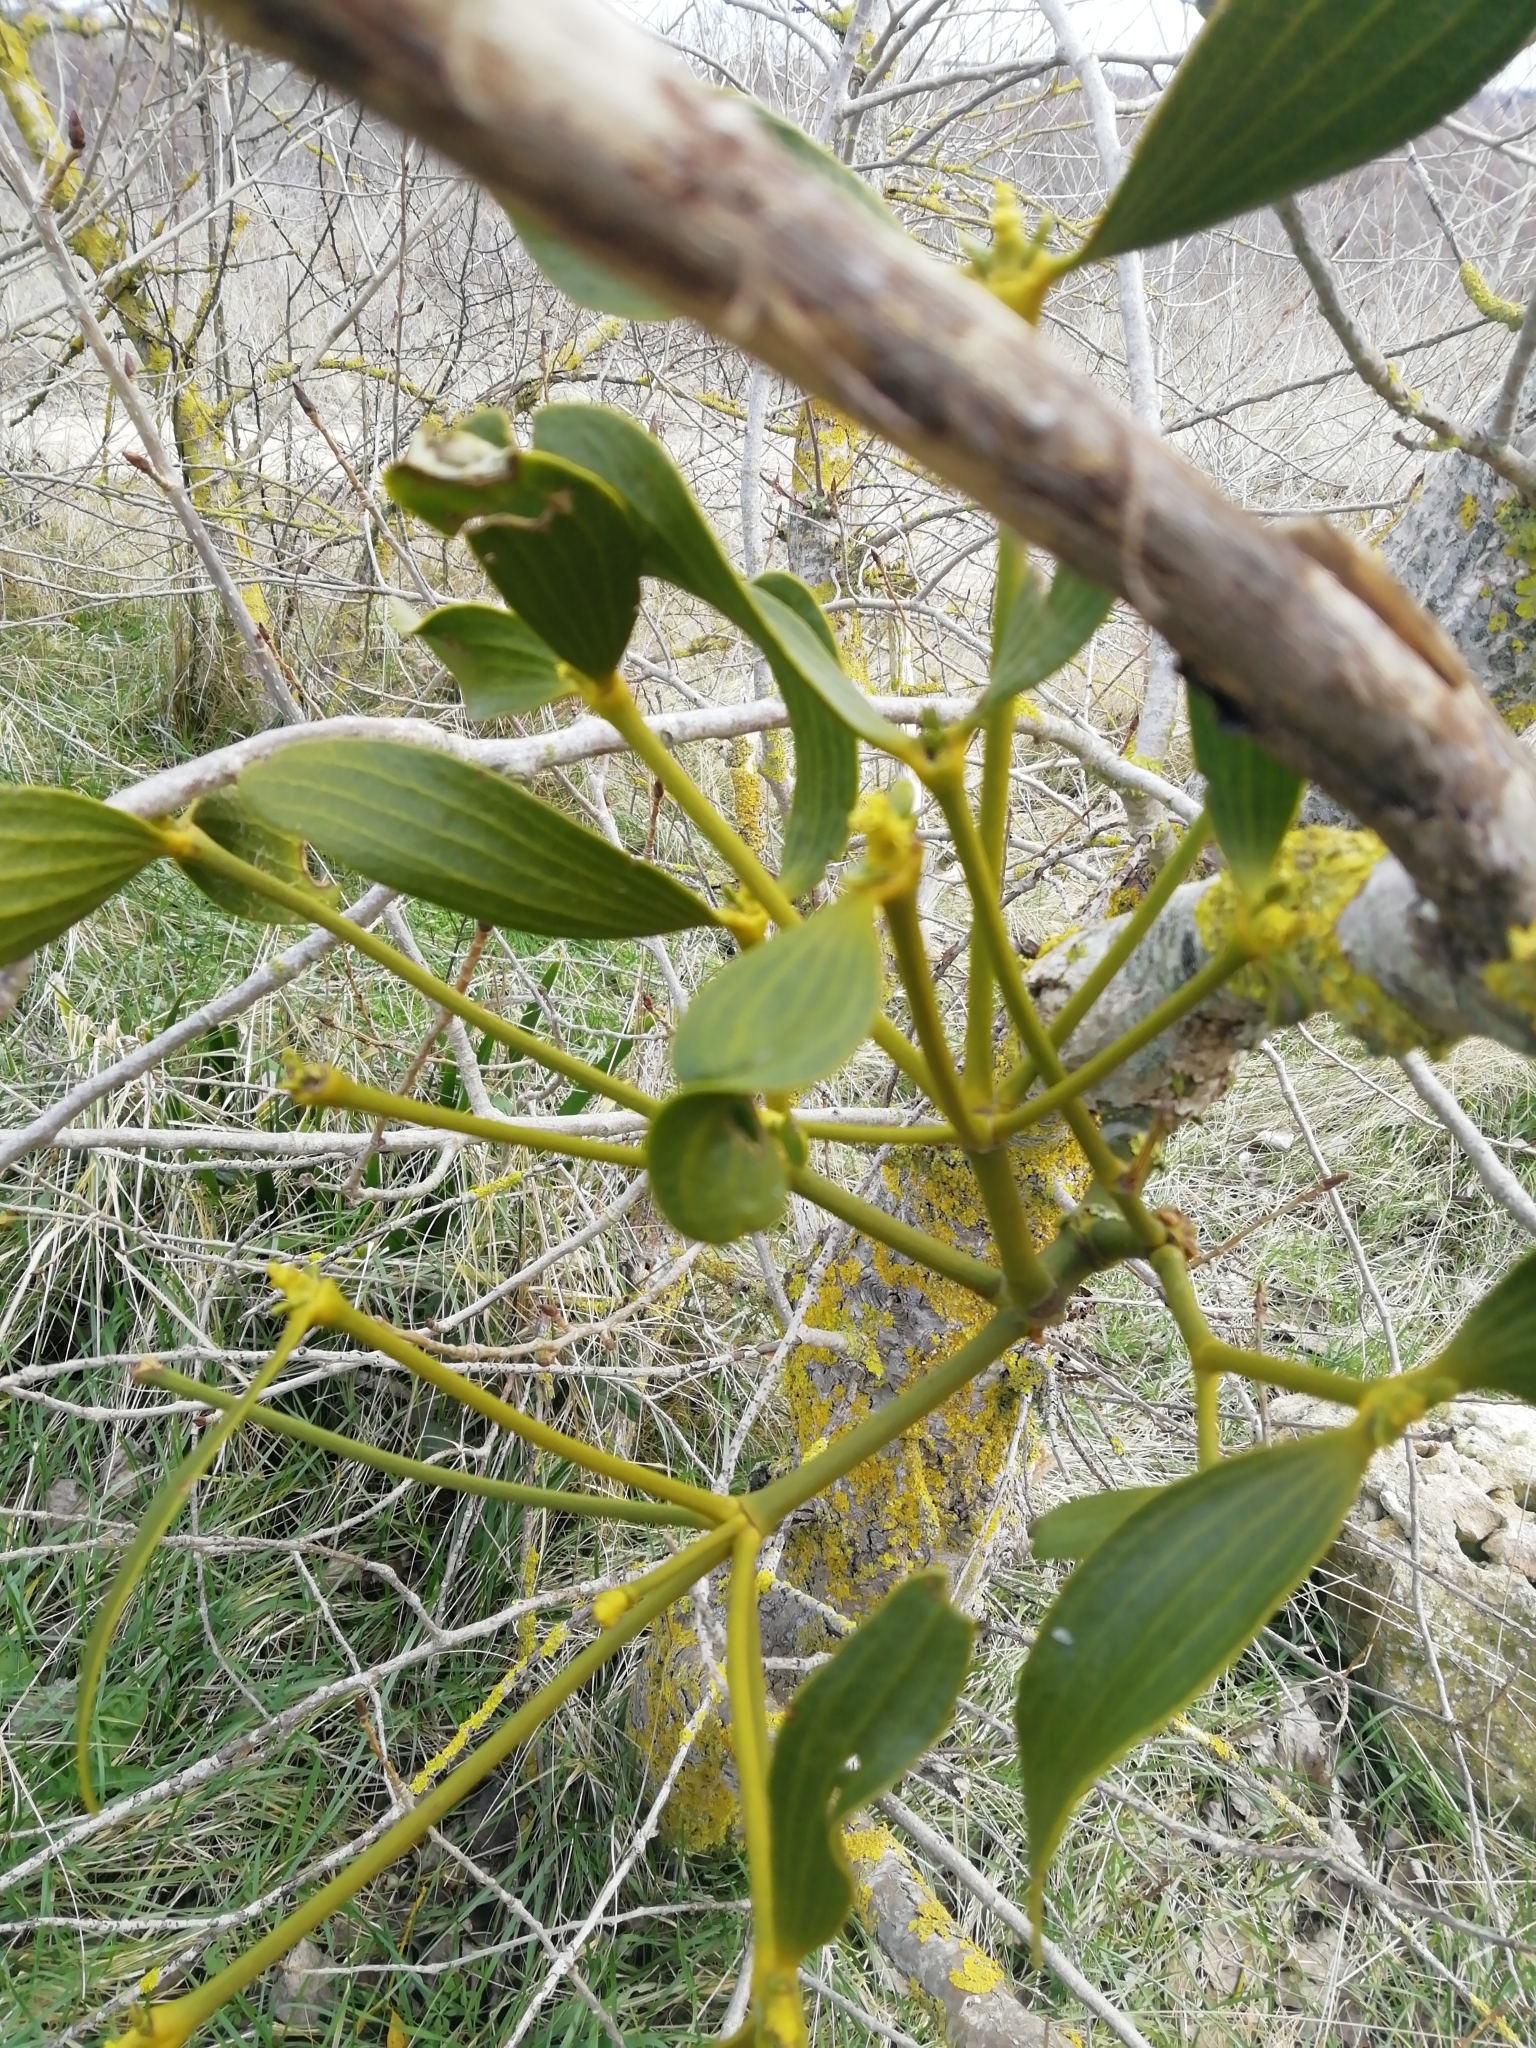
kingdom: Plantae
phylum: Tracheophyta
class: Magnoliopsida
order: Santalales
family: Viscaceae
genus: Viscum
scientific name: Viscum album
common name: Mistletoe
